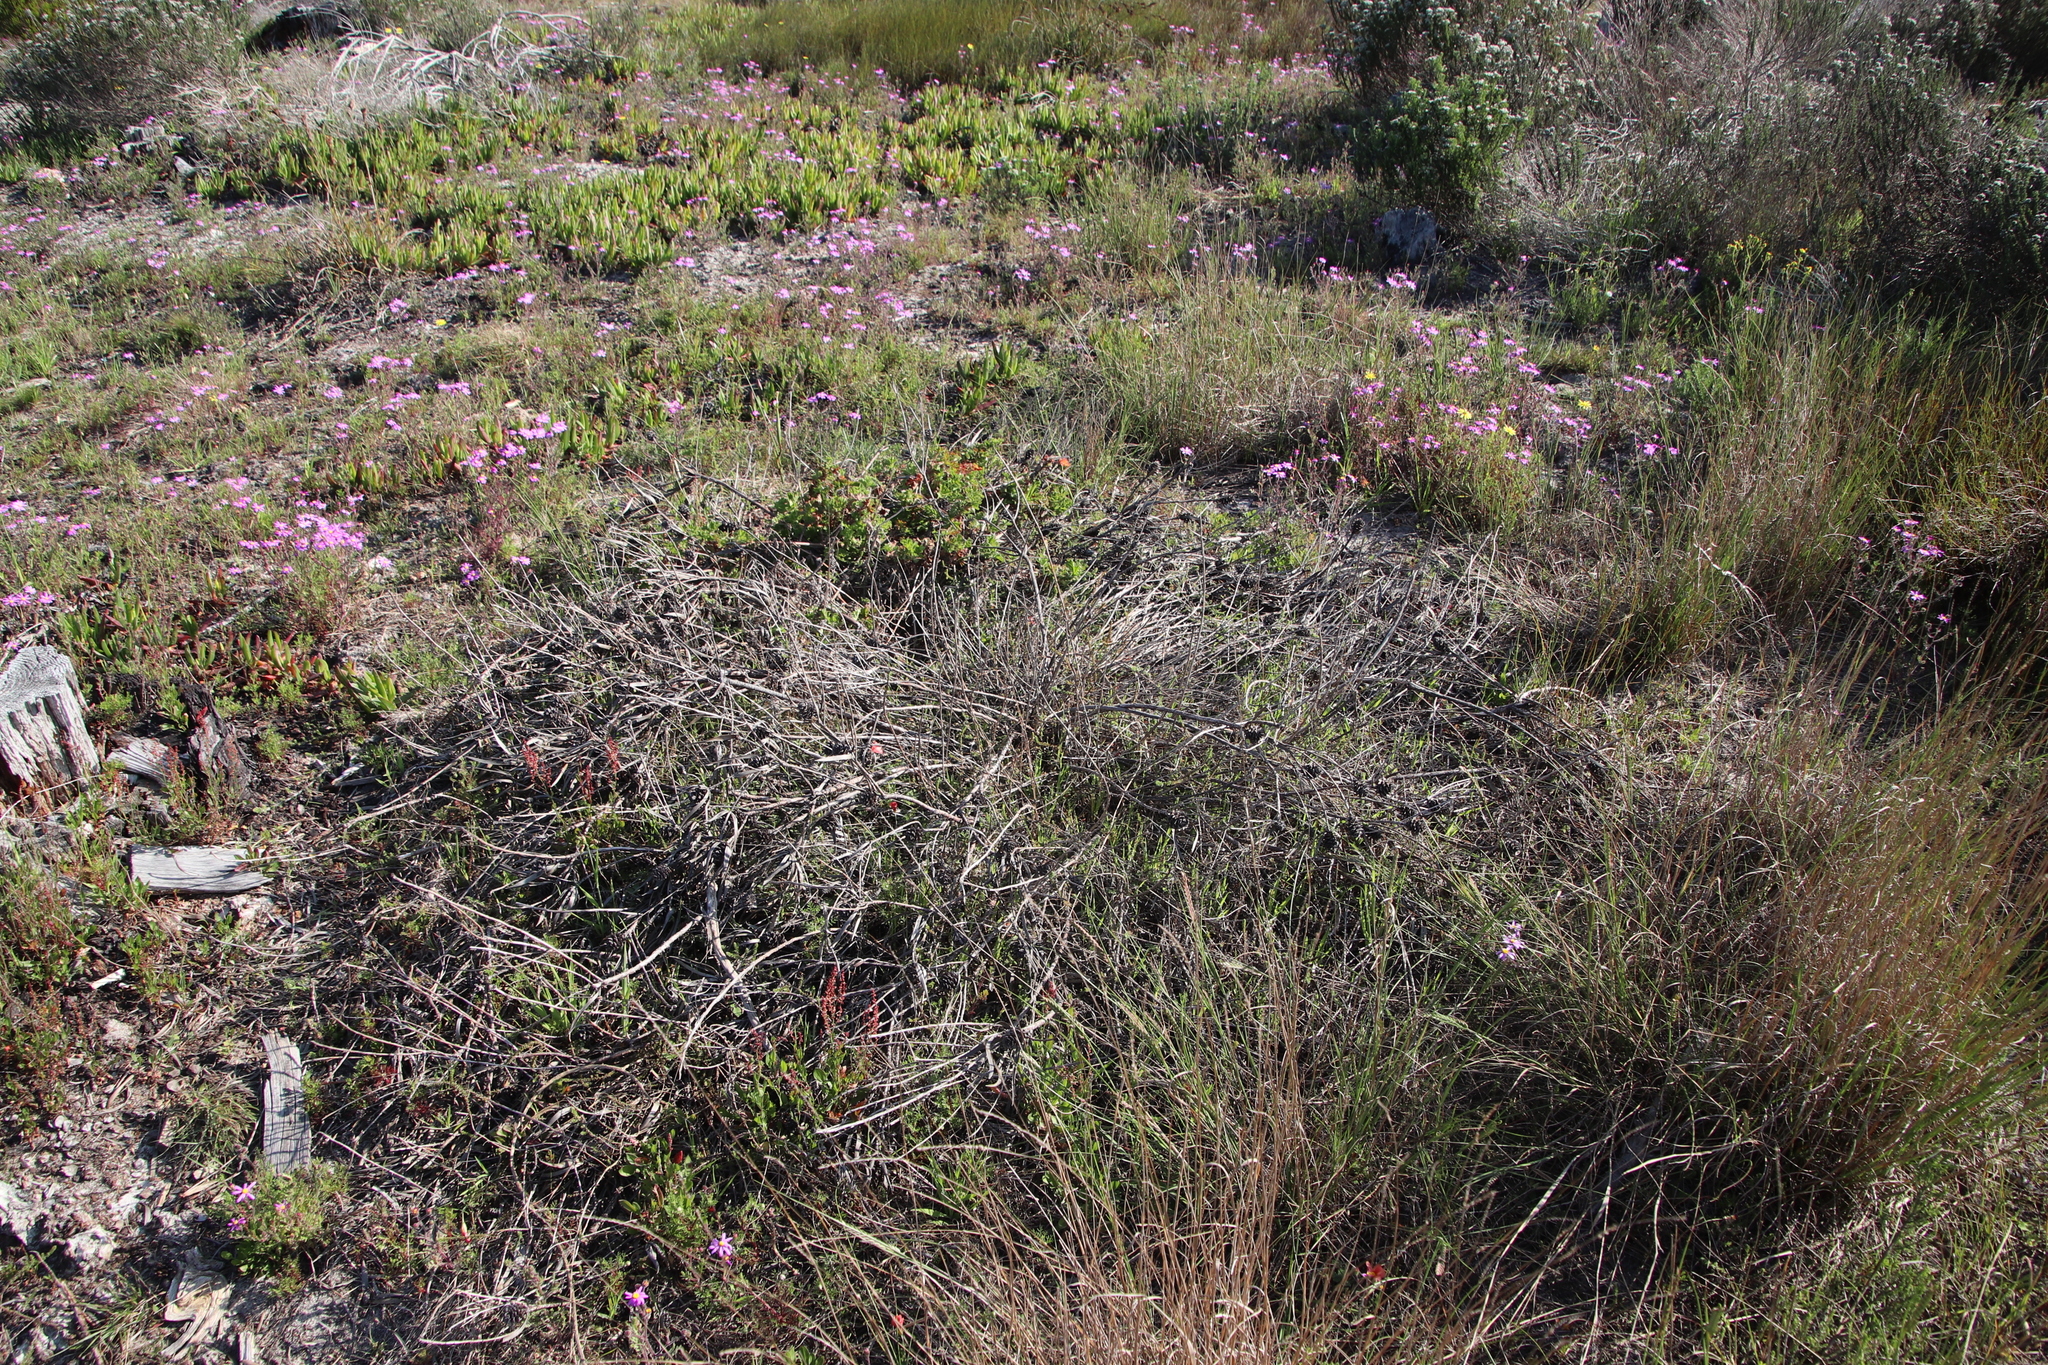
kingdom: Plantae
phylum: Tracheophyta
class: Magnoliopsida
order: Proteales
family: Proteaceae
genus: Leucadendron
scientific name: Leucadendron salignum
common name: Common sunshine conebush
